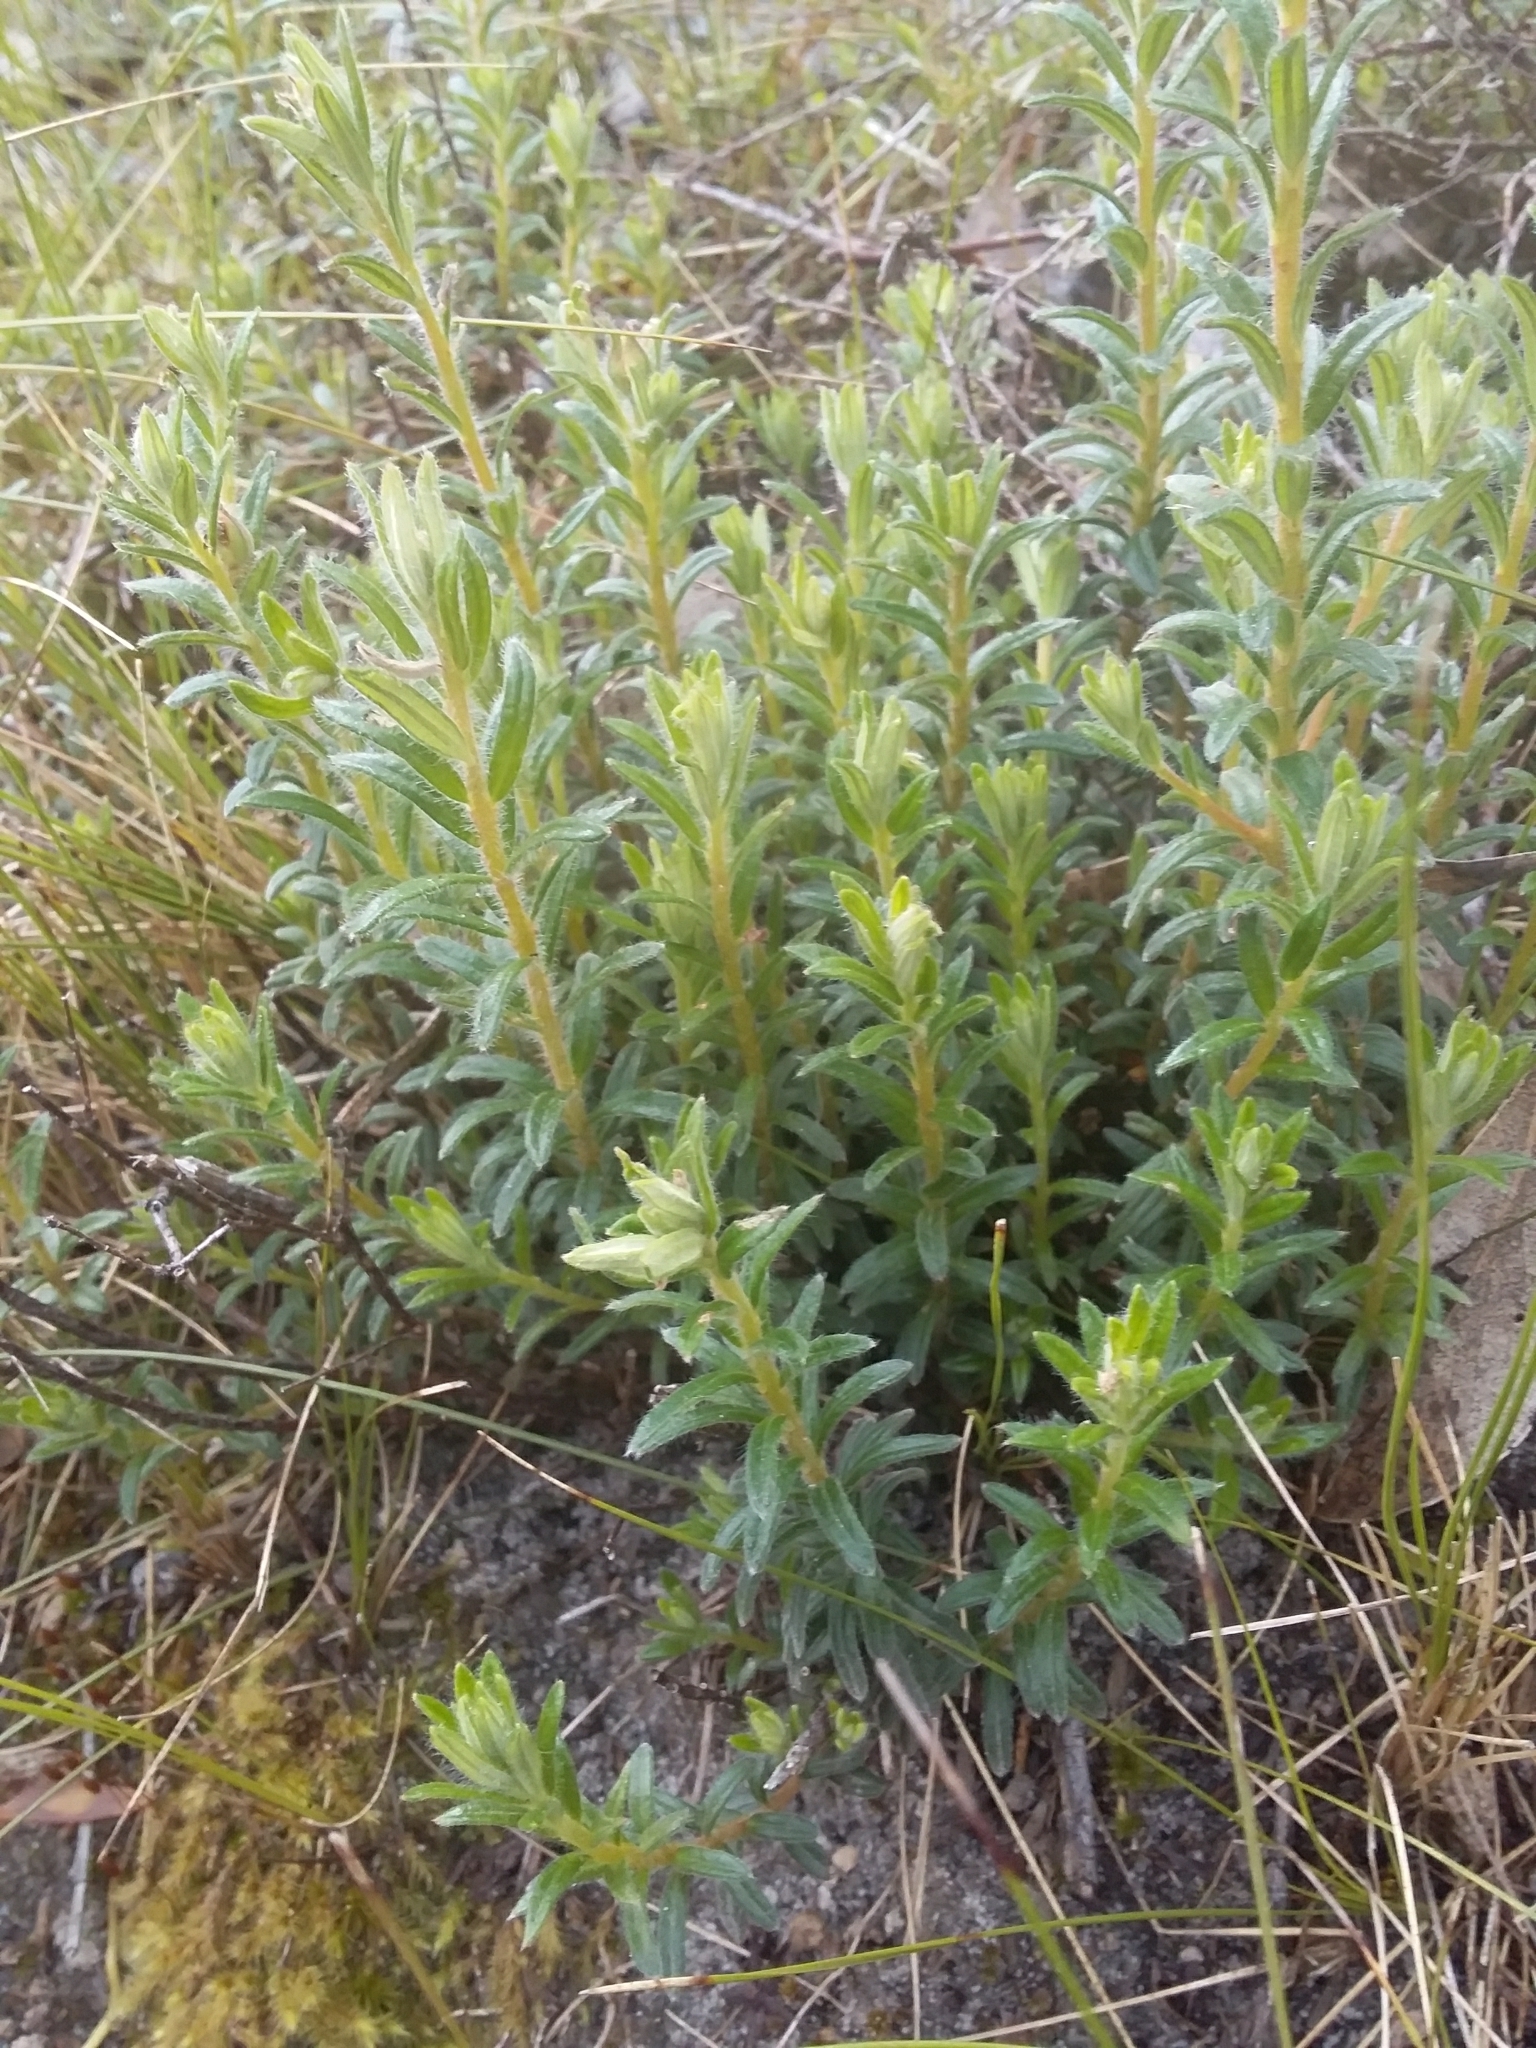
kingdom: Plantae
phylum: Tracheophyta
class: Magnoliopsida
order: Saxifragales
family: Haloragaceae
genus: Gonocarpus
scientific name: Gonocarpus elatus
